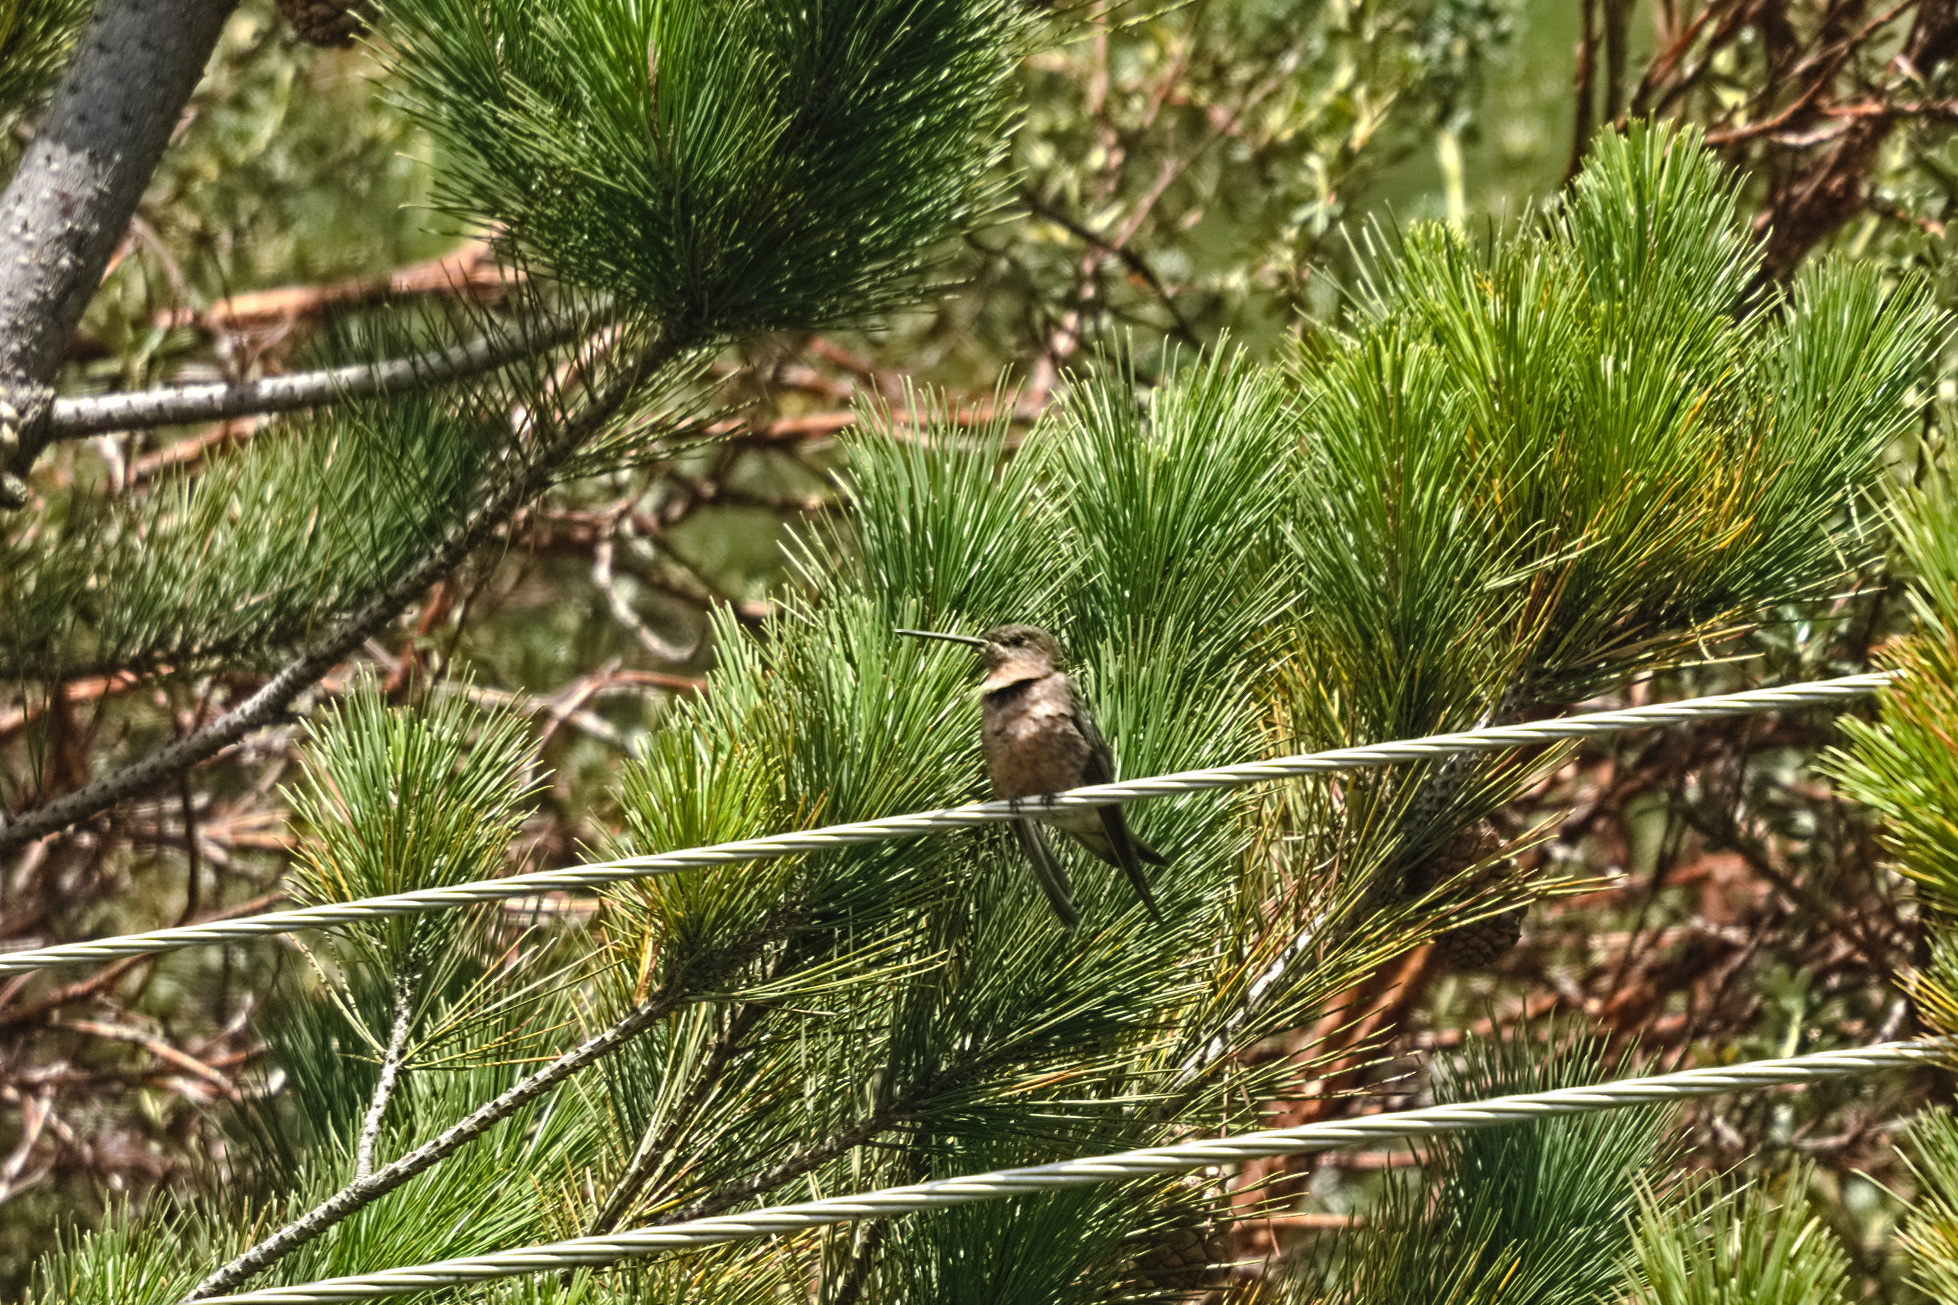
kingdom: Animalia
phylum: Chordata
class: Aves
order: Apodiformes
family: Trochilidae
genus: Patagona
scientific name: Patagona gigas
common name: Giant hummingbird
